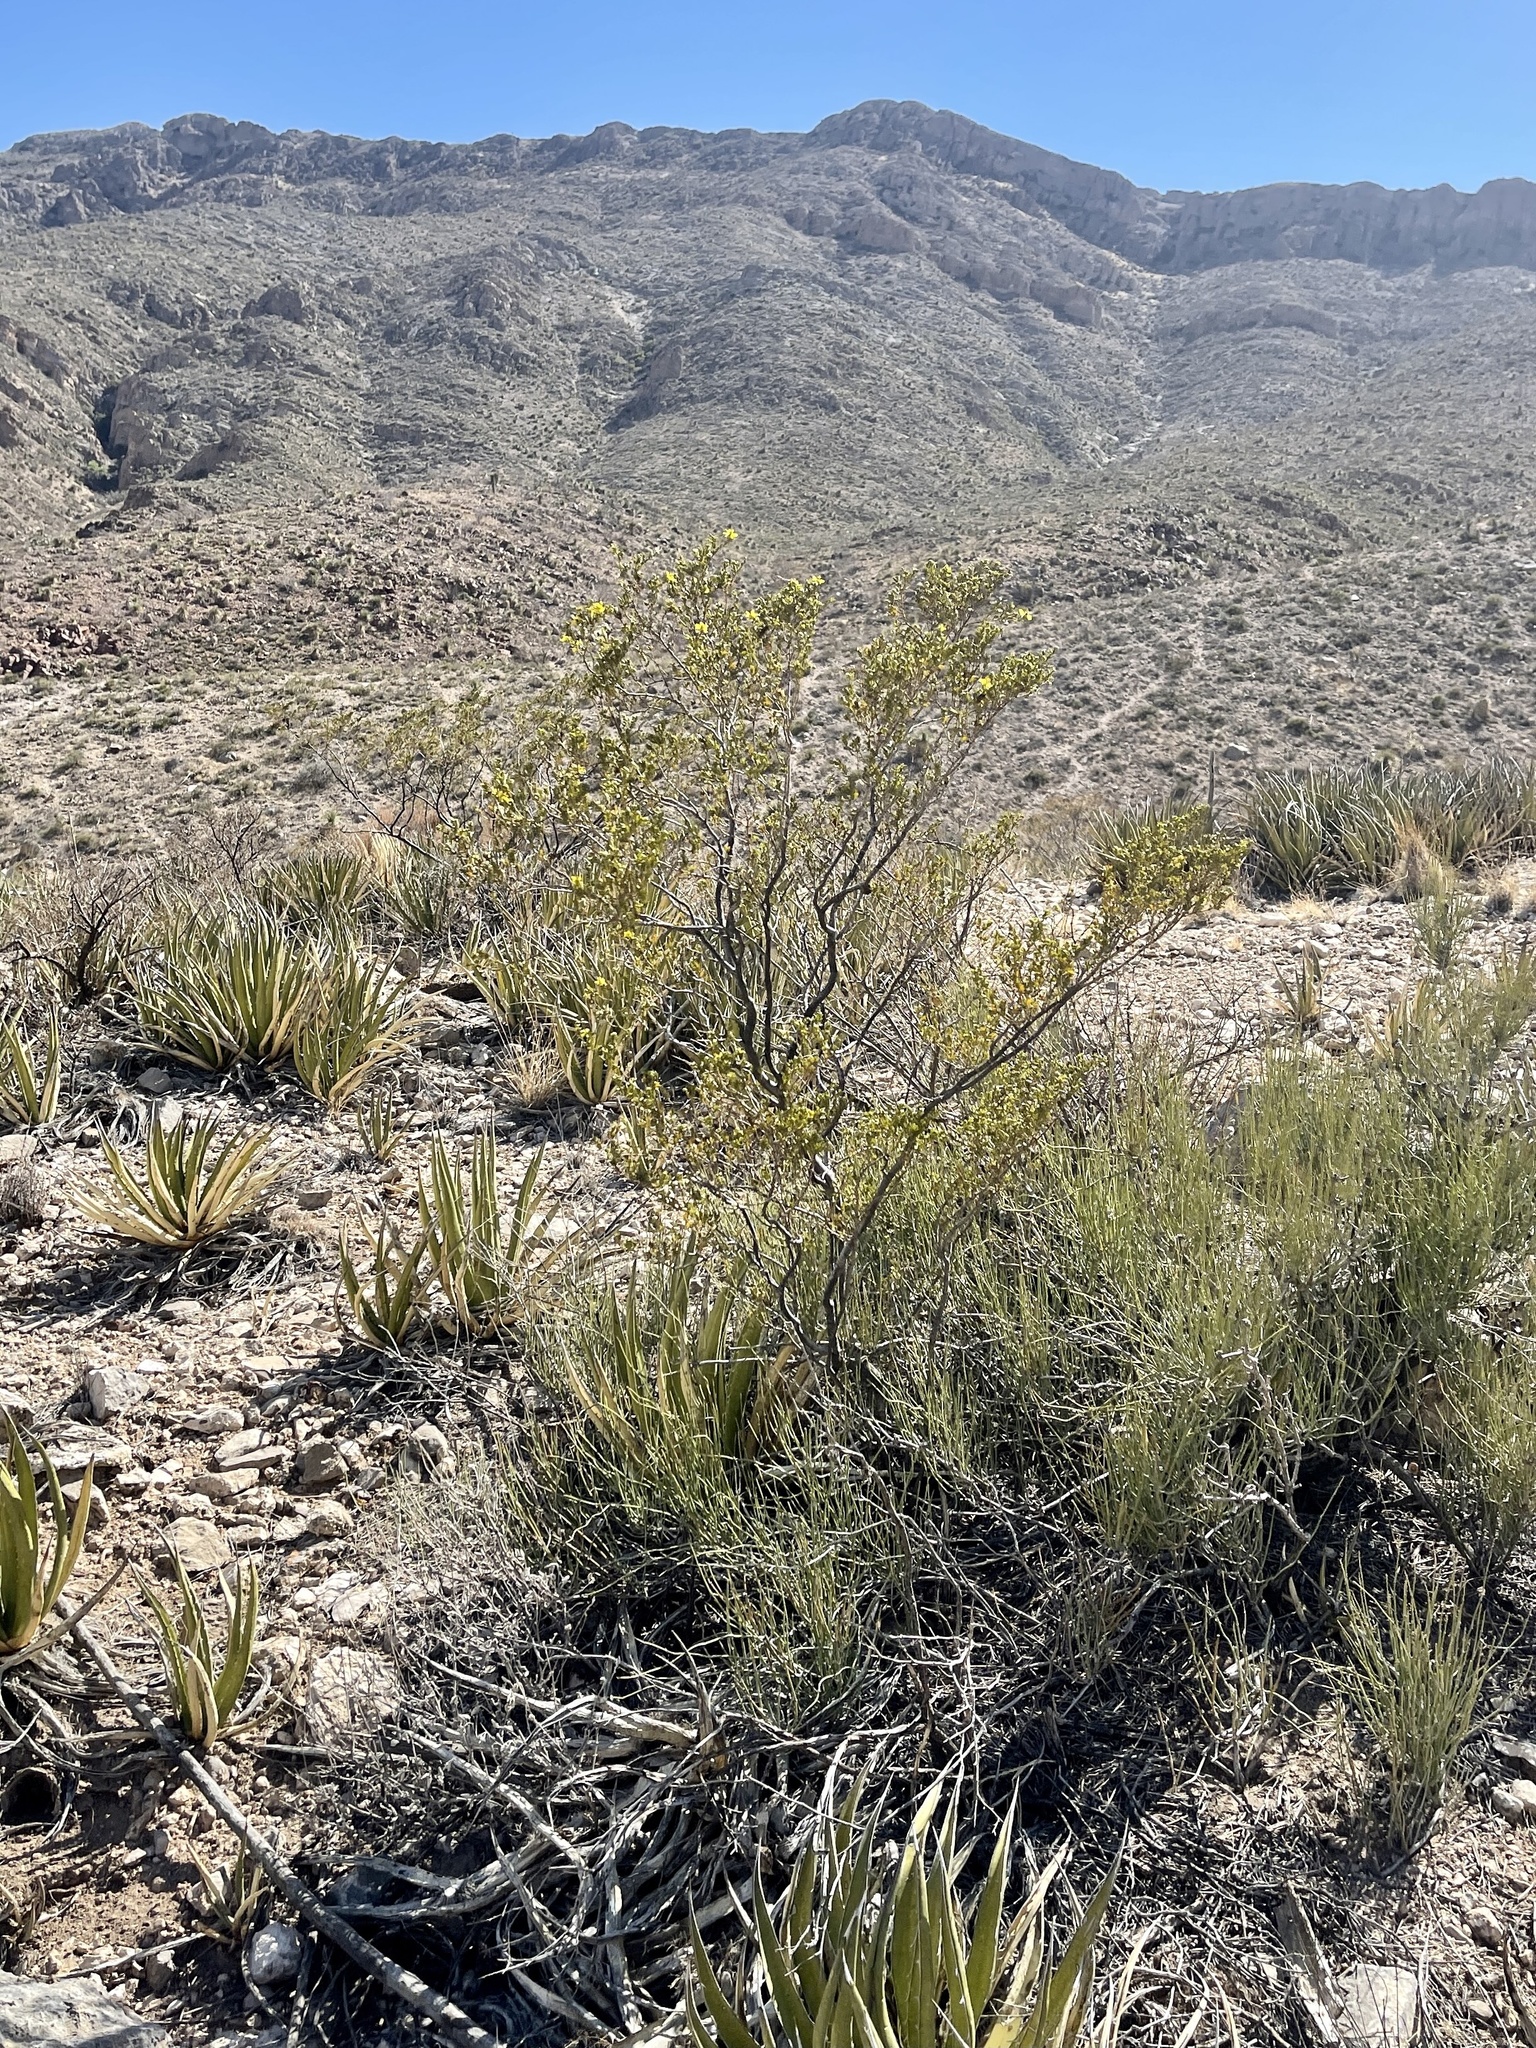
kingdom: Plantae
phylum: Tracheophyta
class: Magnoliopsida
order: Zygophyllales
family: Zygophyllaceae
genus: Larrea
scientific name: Larrea tridentata
